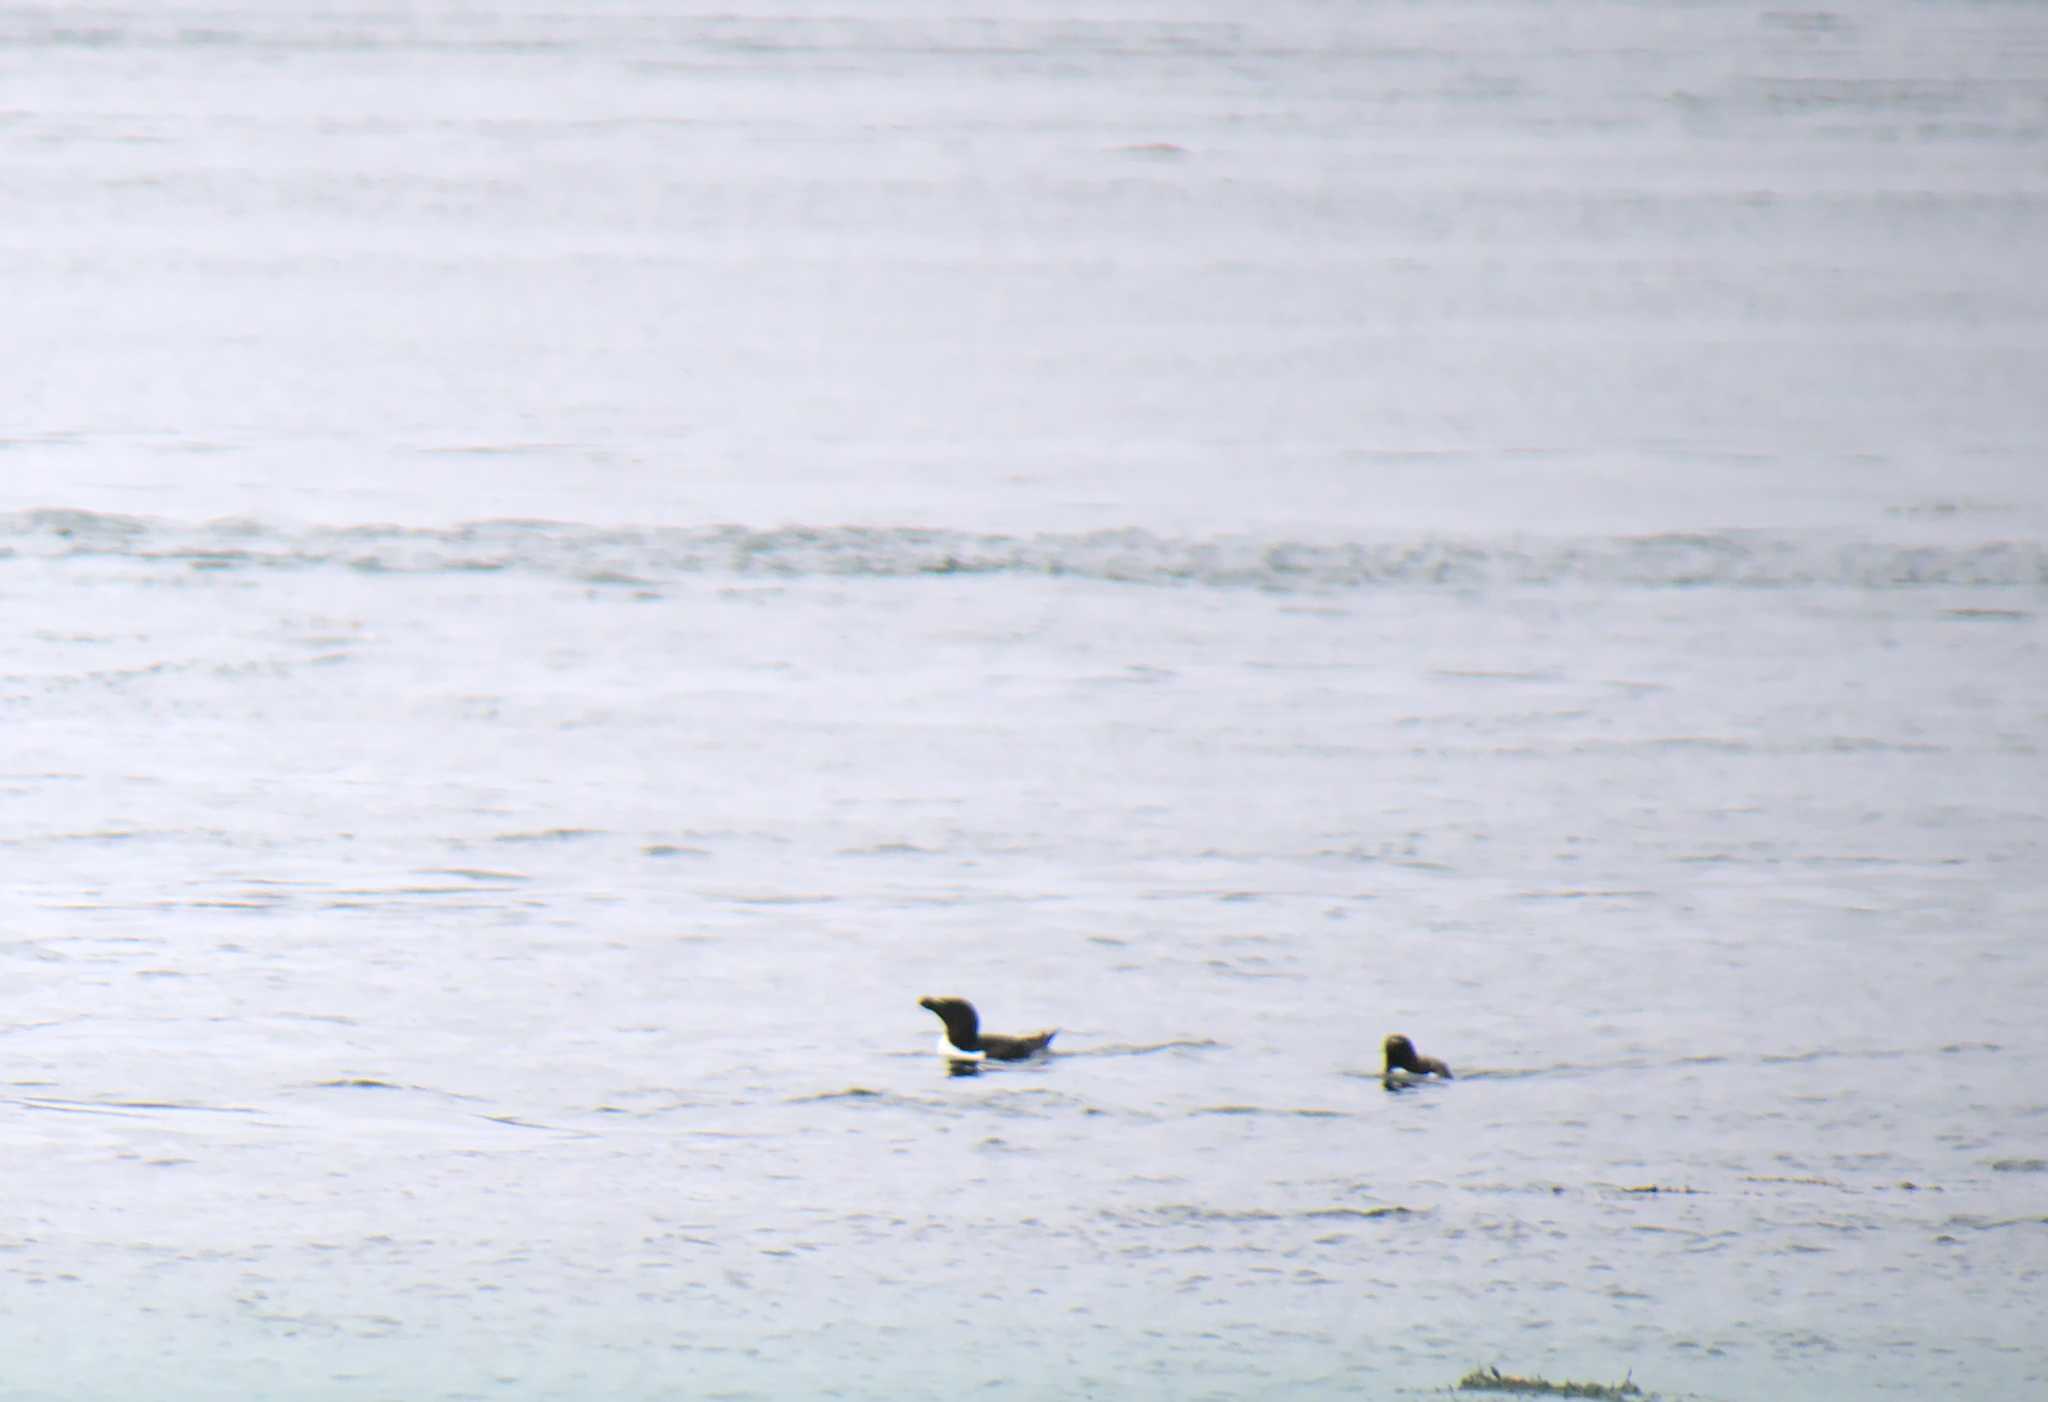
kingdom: Animalia
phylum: Chordata
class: Aves
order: Charadriiformes
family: Alcidae
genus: Alca
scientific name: Alca torda
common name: Razorbill
